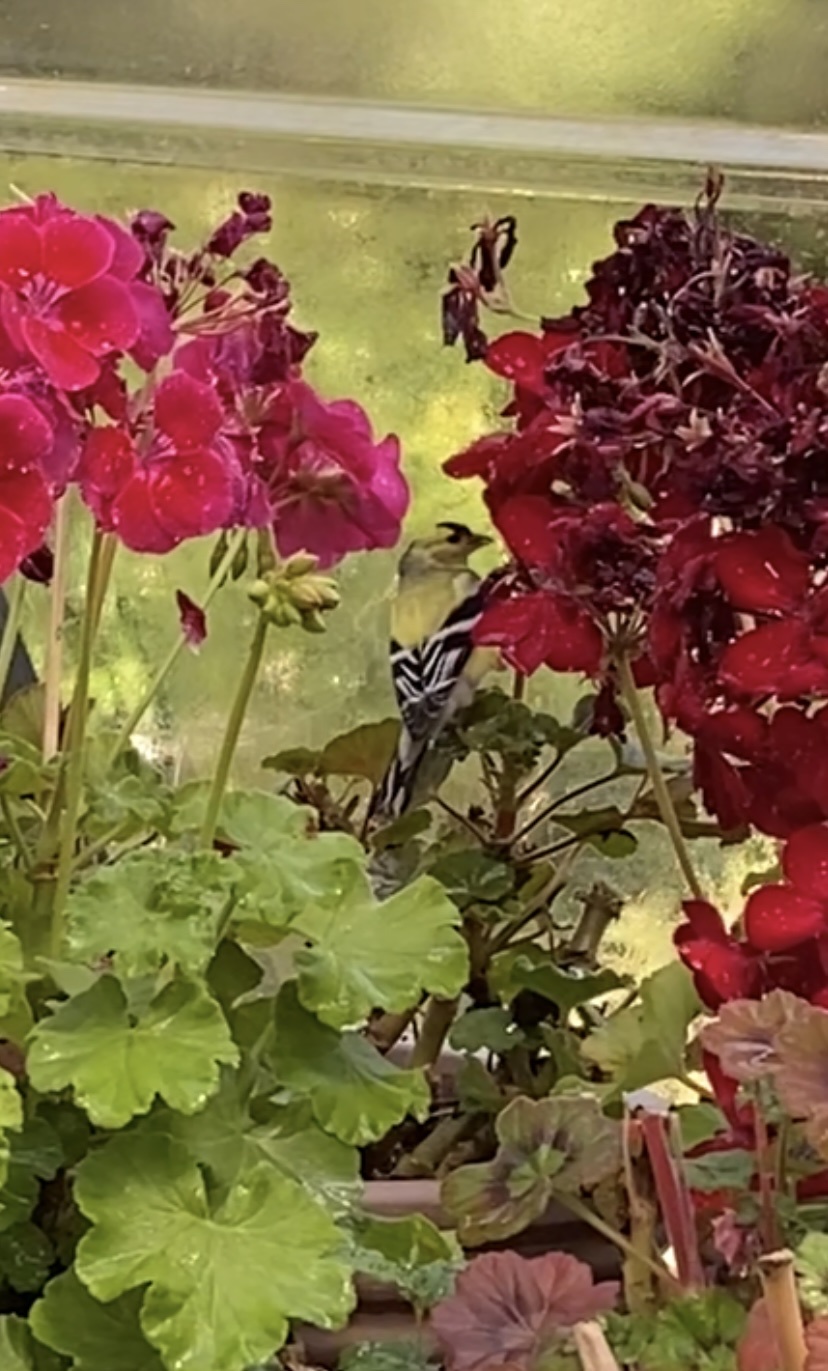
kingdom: Animalia
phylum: Chordata
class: Aves
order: Passeriformes
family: Fringillidae
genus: Spinus
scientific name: Spinus tristis
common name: American goldfinch
